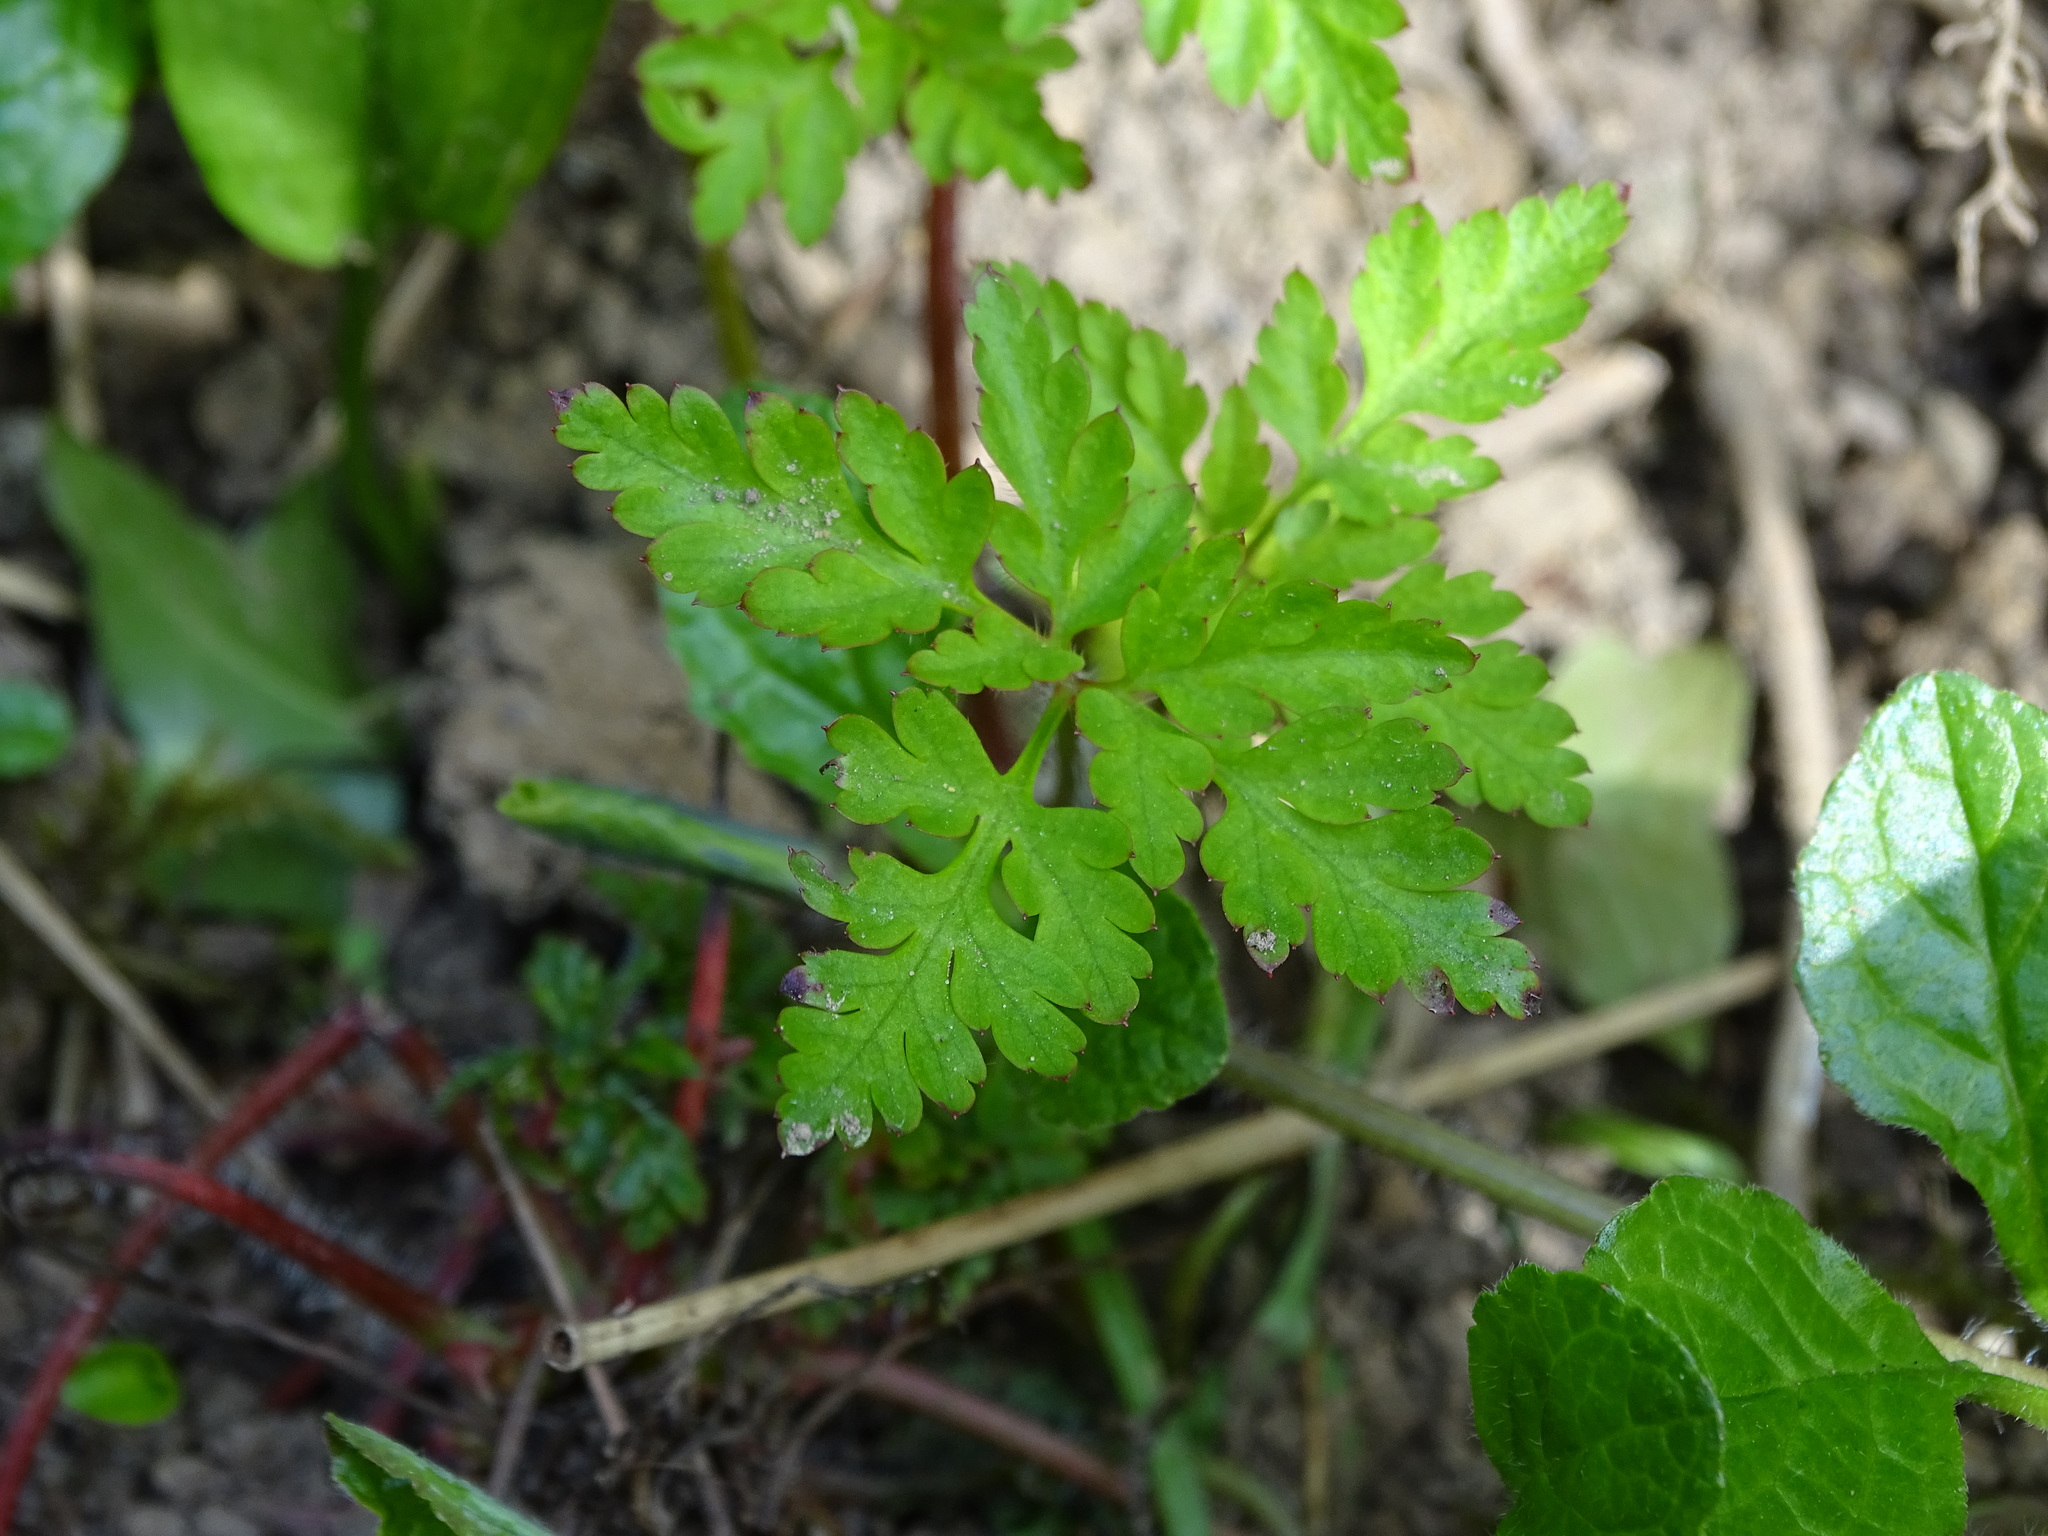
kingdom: Plantae
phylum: Tracheophyta
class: Magnoliopsida
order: Geraniales
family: Geraniaceae
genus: Geranium
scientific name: Geranium robertianum
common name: Herb-robert
